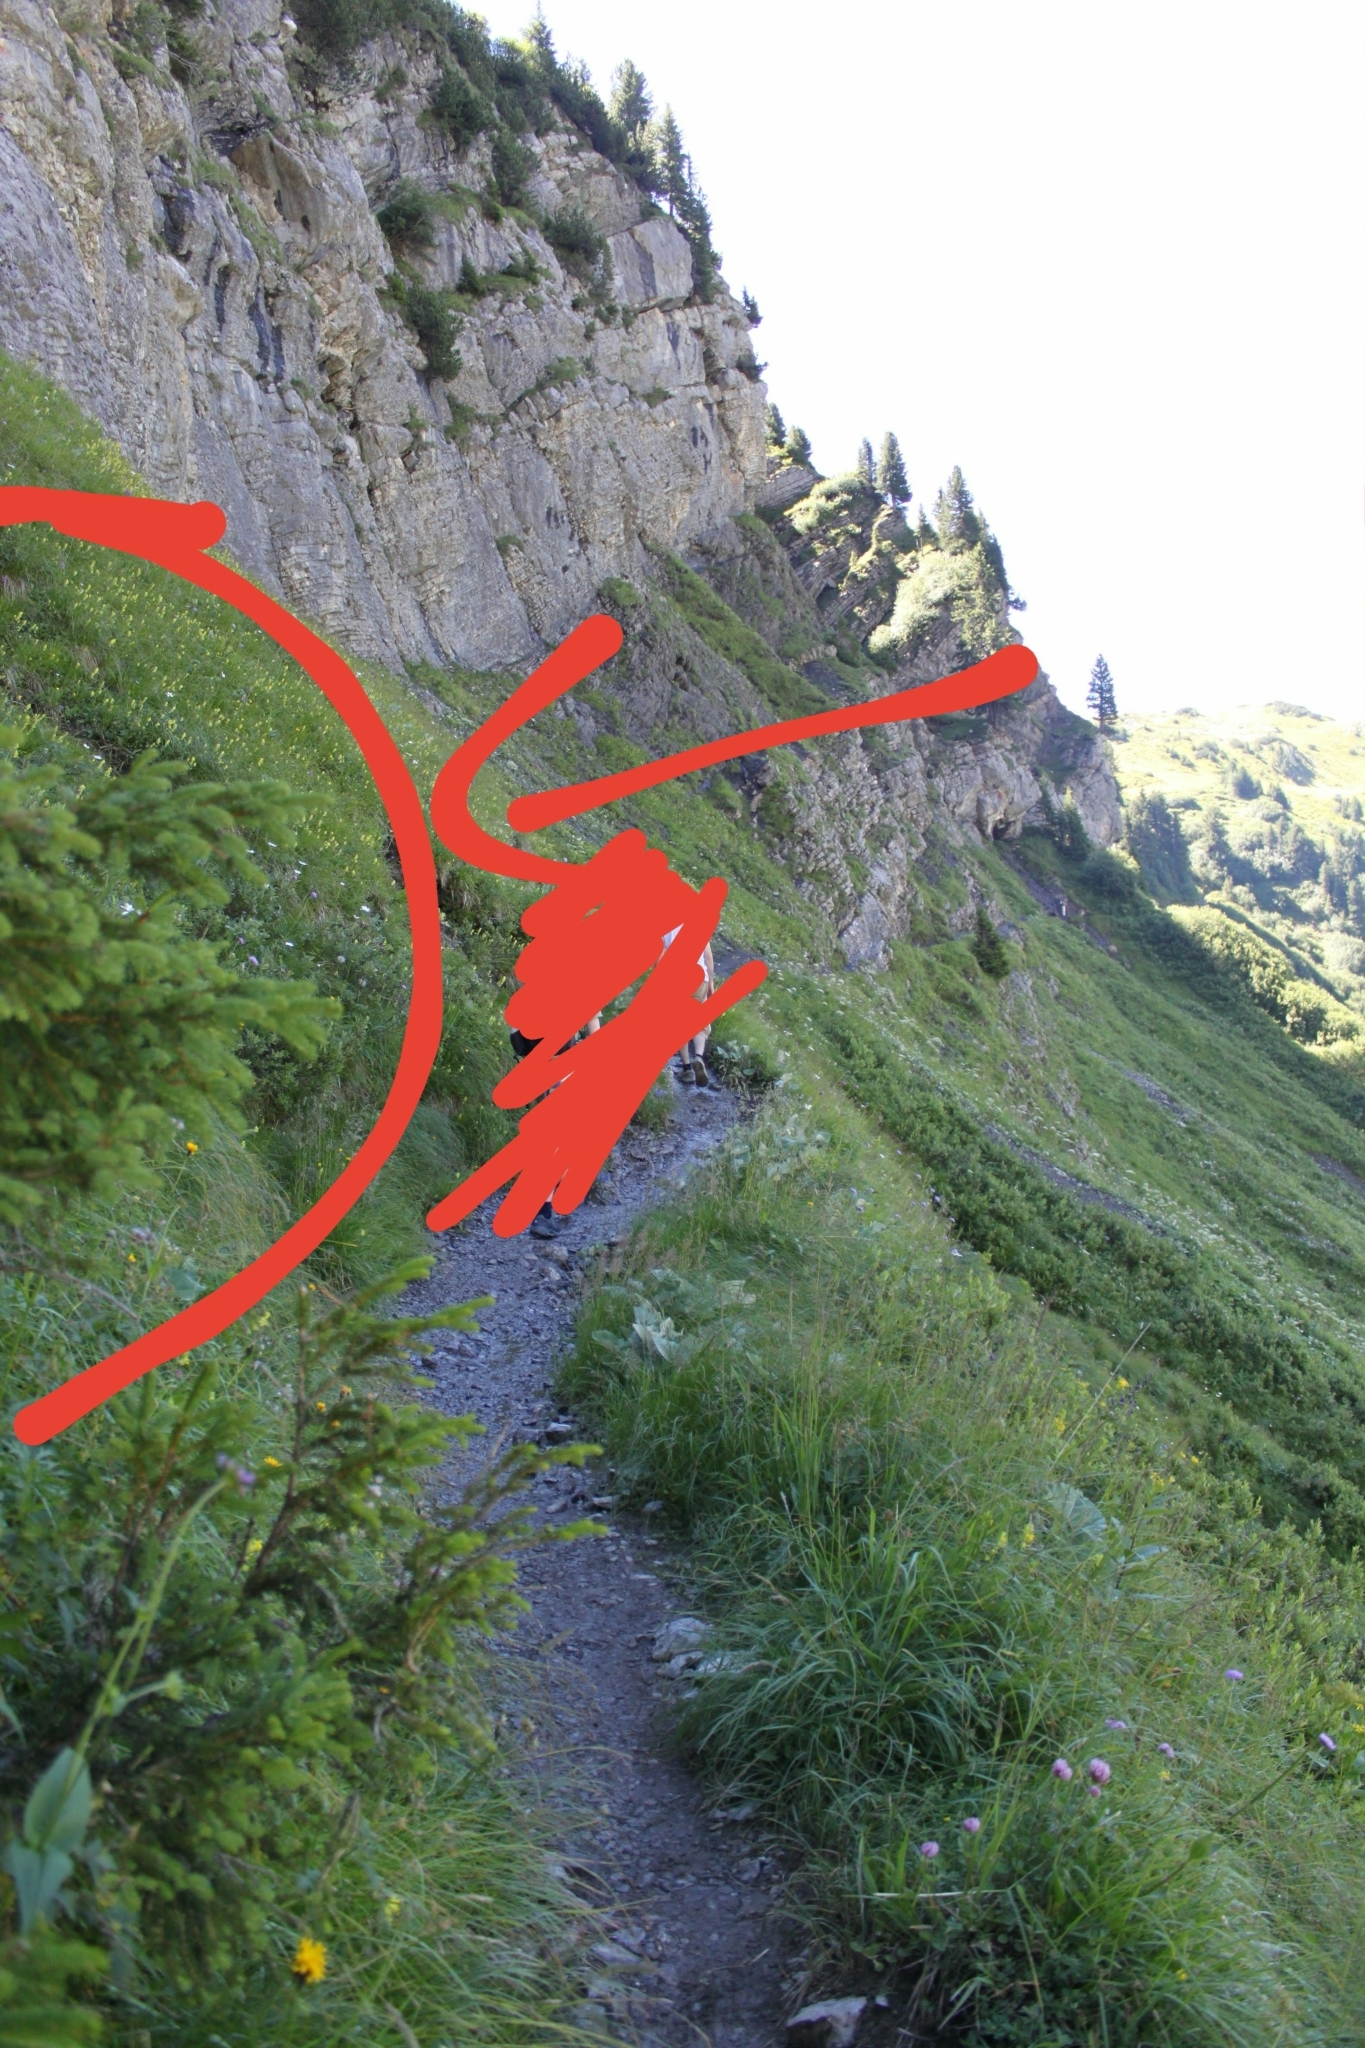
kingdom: Plantae
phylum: Tracheophyta
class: Pinopsida
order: Pinales
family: Pinaceae
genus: Picea
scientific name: Picea abies
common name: Norway spruce
